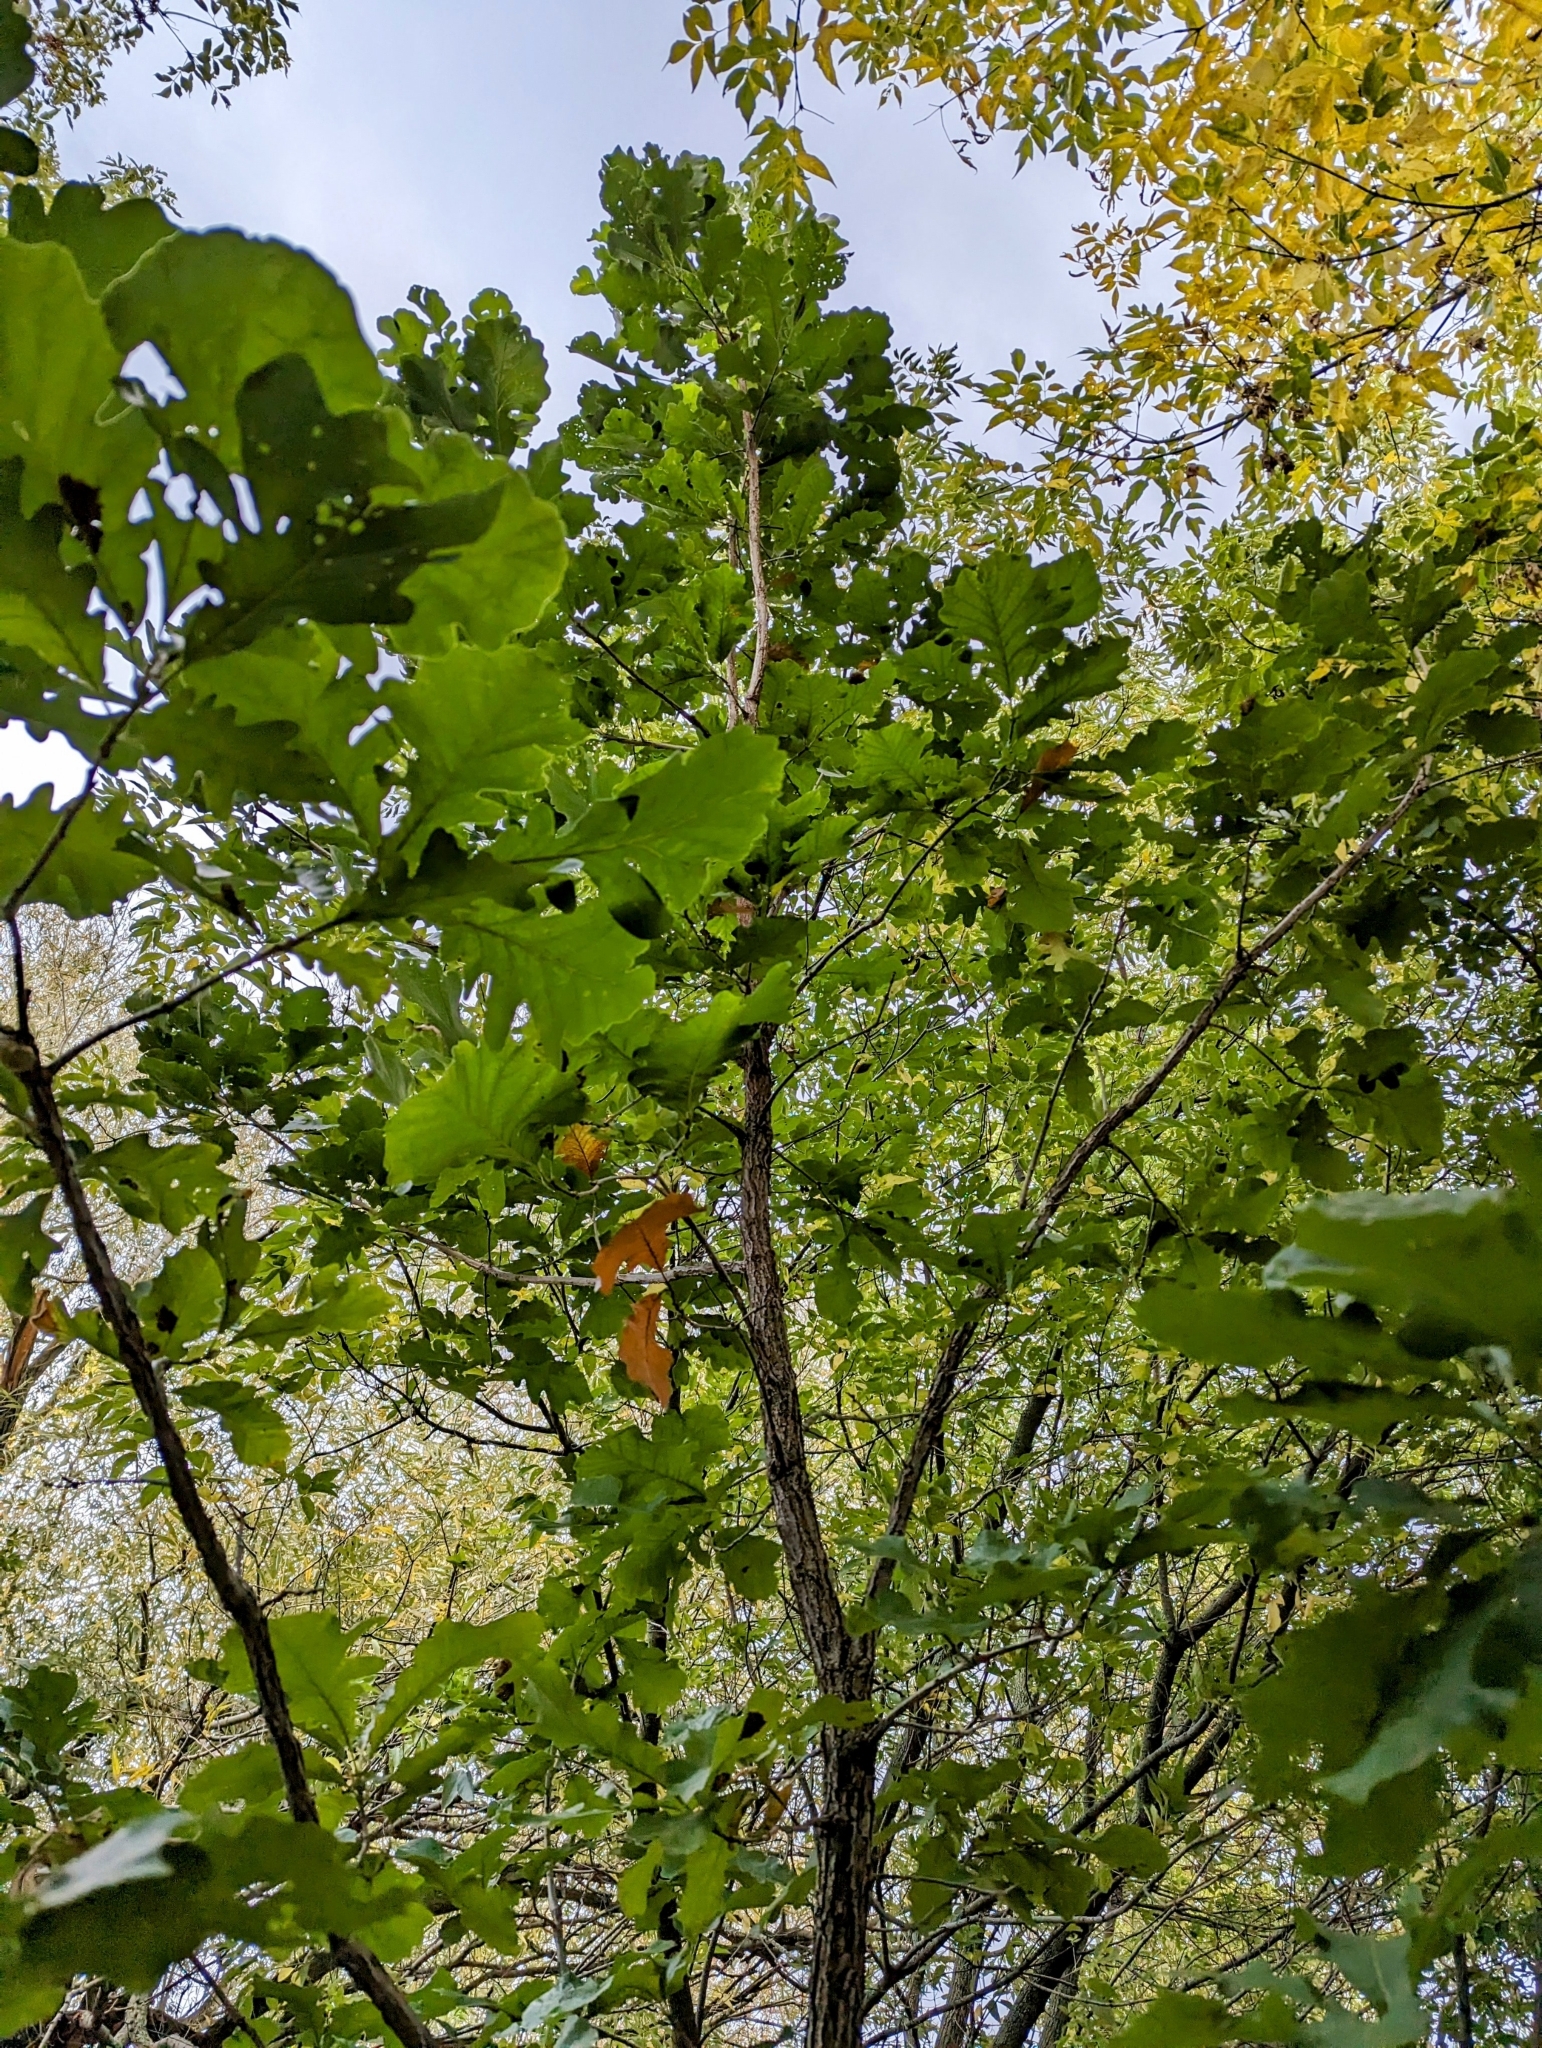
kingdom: Plantae
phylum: Tracheophyta
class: Magnoliopsida
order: Fagales
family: Fagaceae
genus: Quercus
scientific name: Quercus macrocarpa
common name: Bur oak
